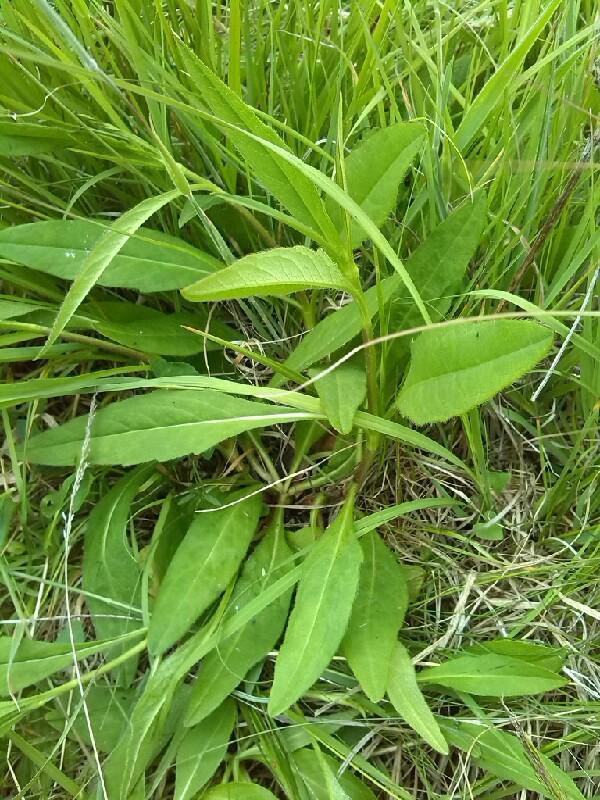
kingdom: Plantae
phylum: Tracheophyta
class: Magnoliopsida
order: Dipsacales
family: Caprifoliaceae
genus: Succisa
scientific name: Succisa pratensis
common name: Devil's-bit
